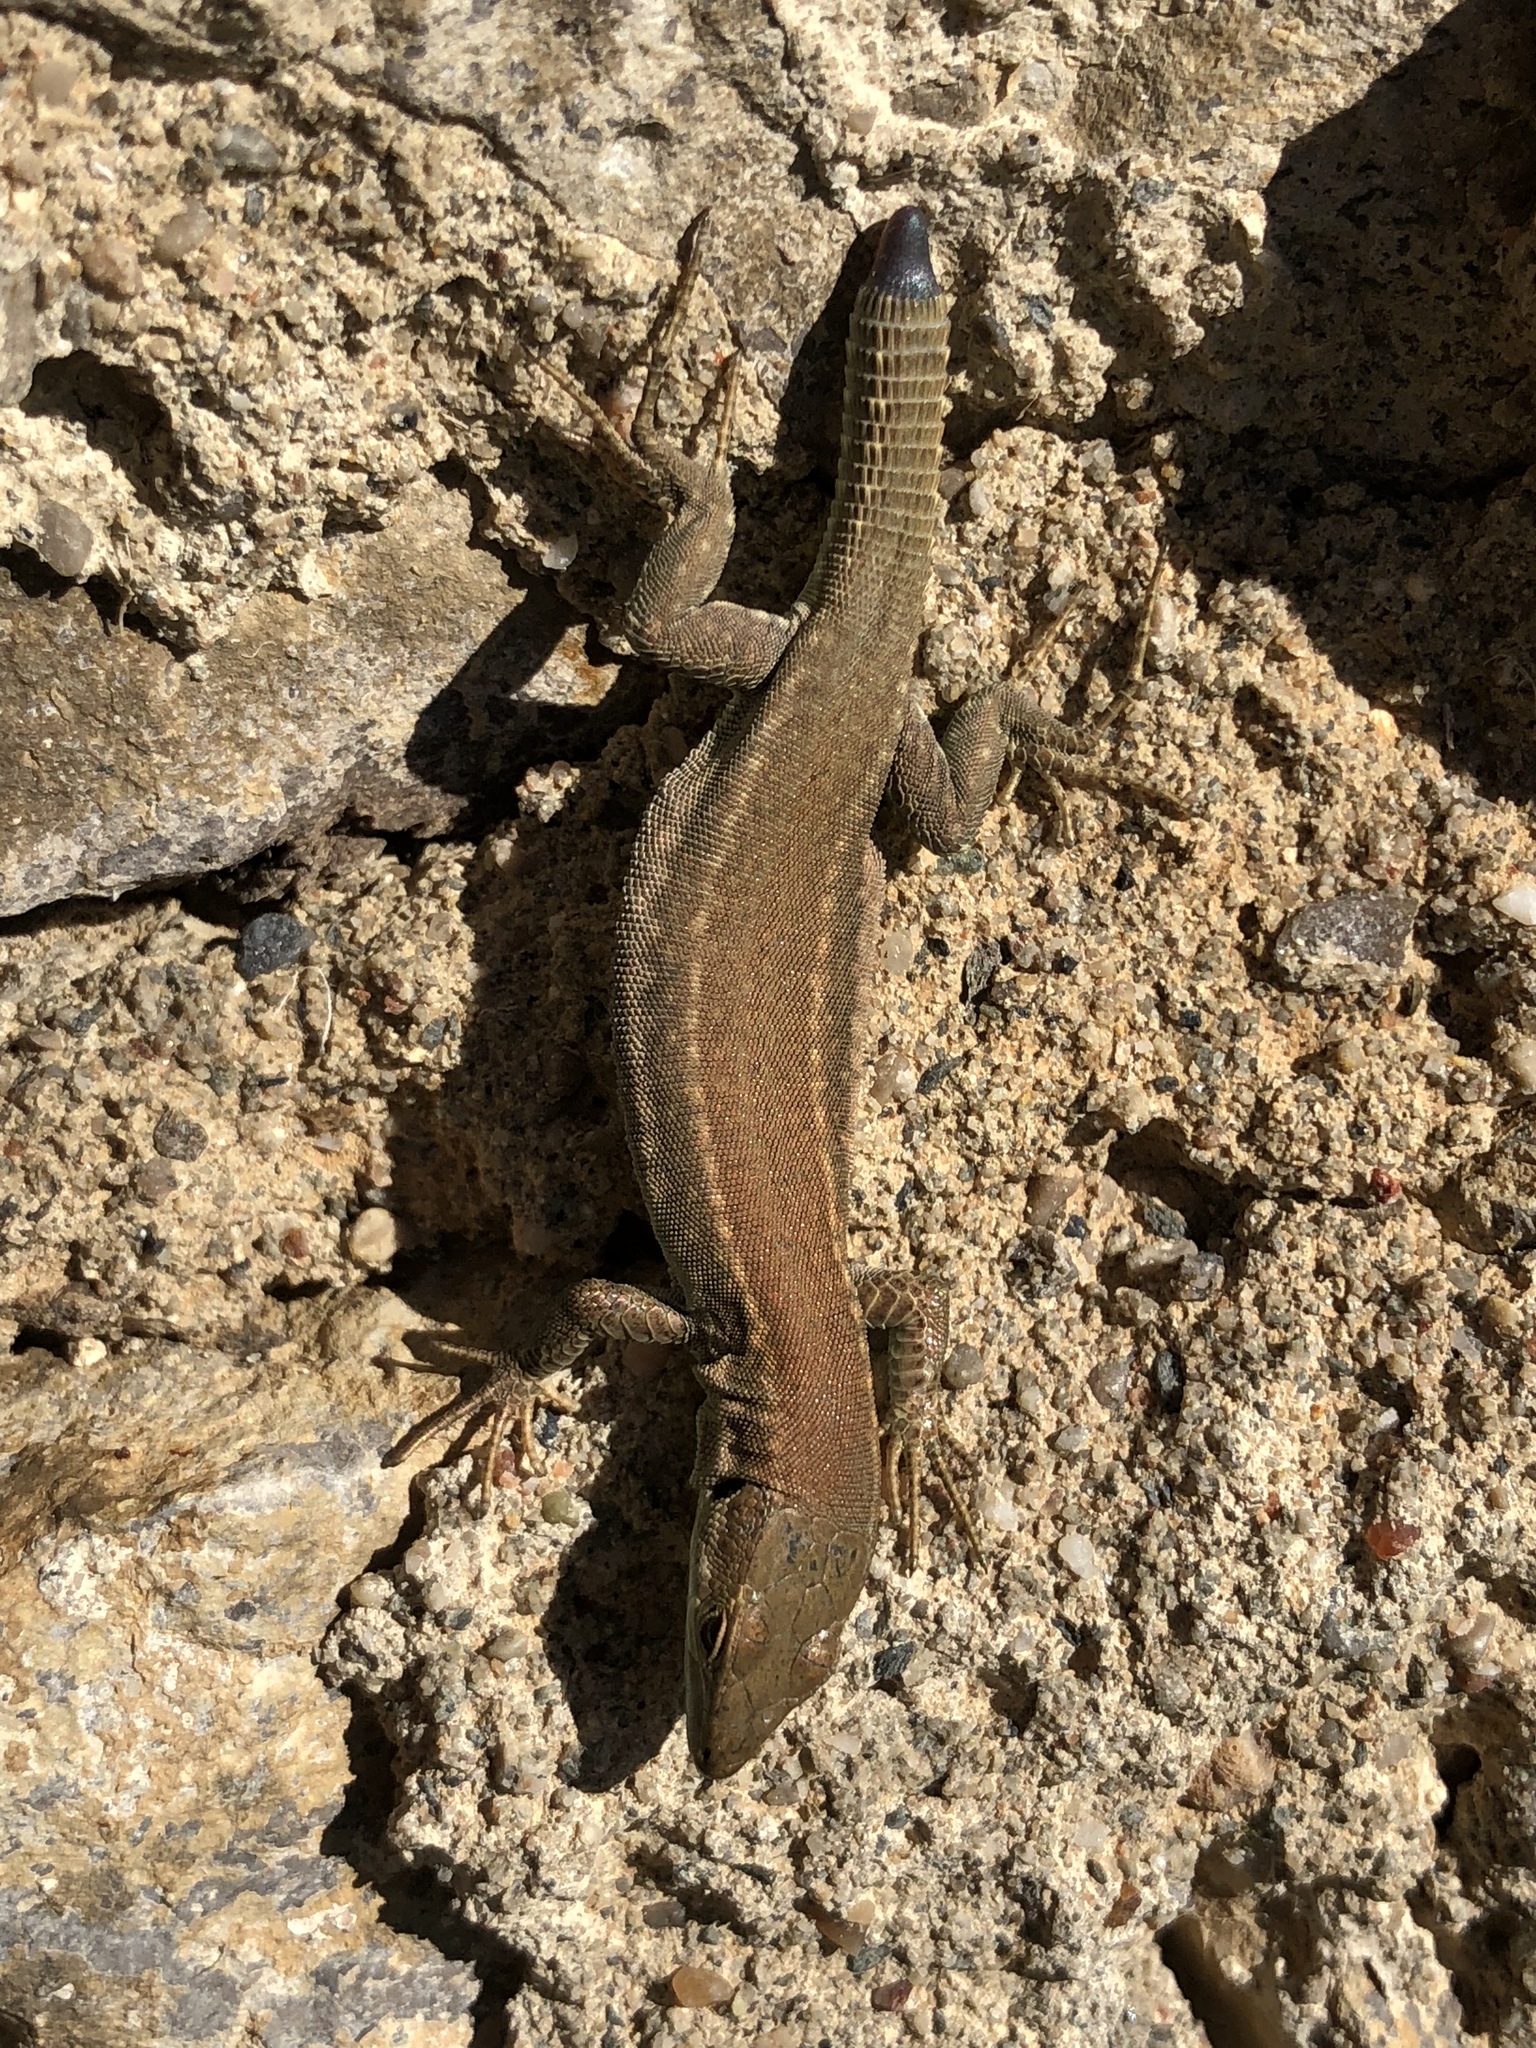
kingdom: Animalia
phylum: Chordata
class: Squamata
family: Lacertidae
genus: Podarcis
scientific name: Podarcis liolepis
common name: Catalonian wall lizard
